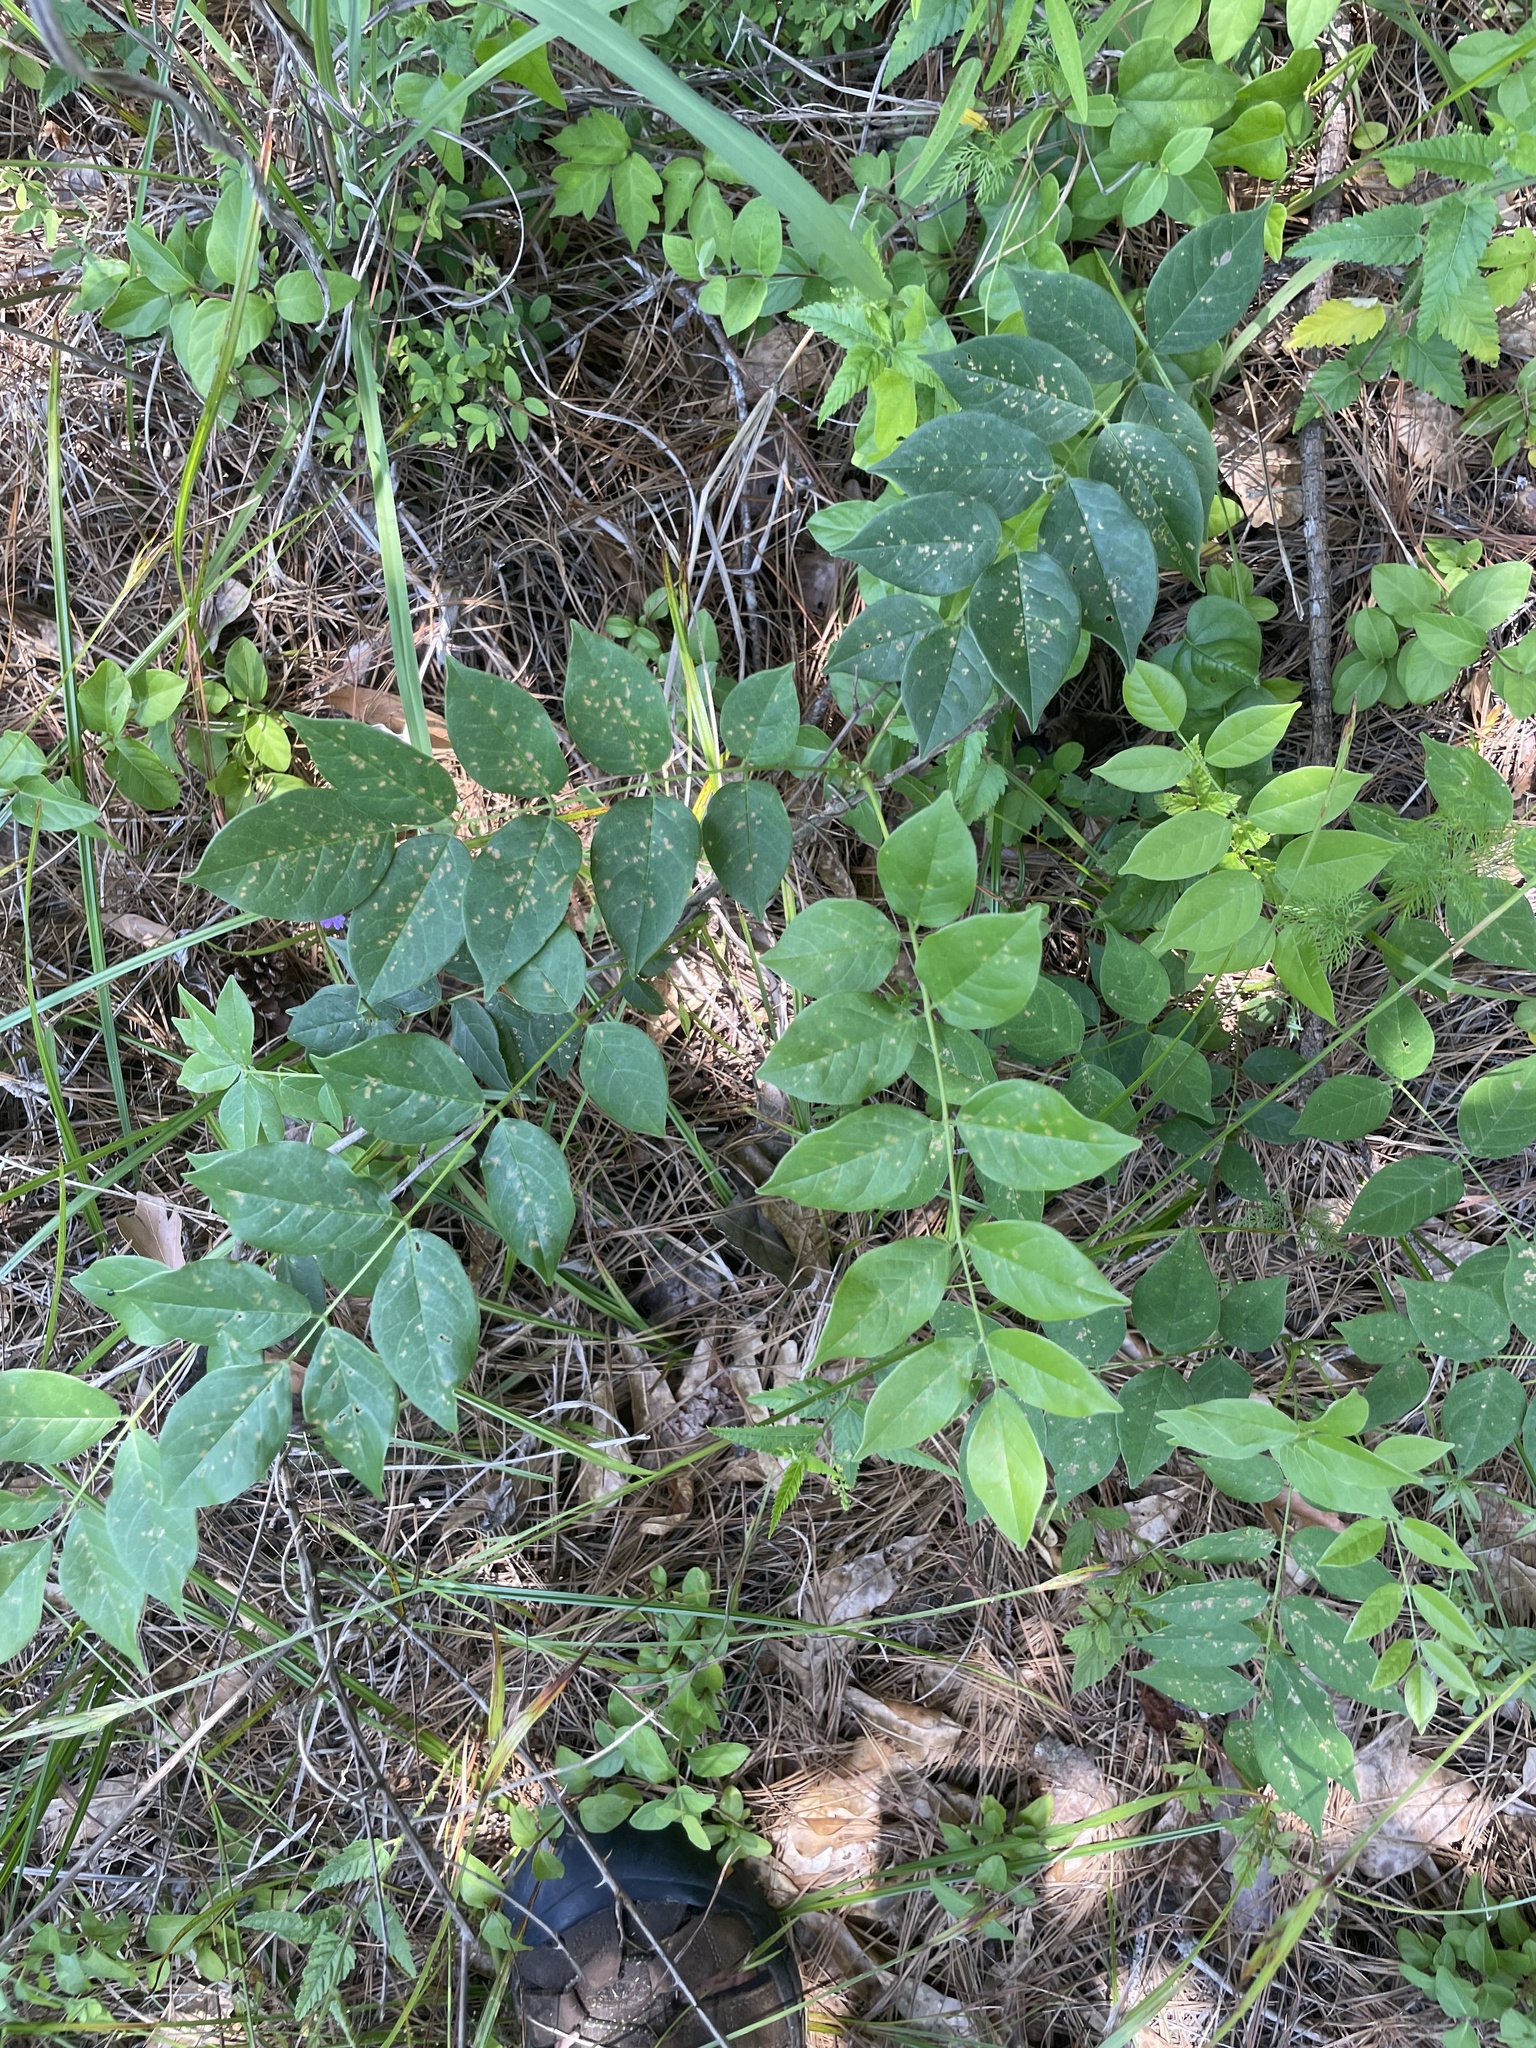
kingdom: Plantae
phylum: Tracheophyta
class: Magnoliopsida
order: Fabales
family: Fabaceae
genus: Wisteria
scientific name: Wisteria frutescens
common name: American wisteria
